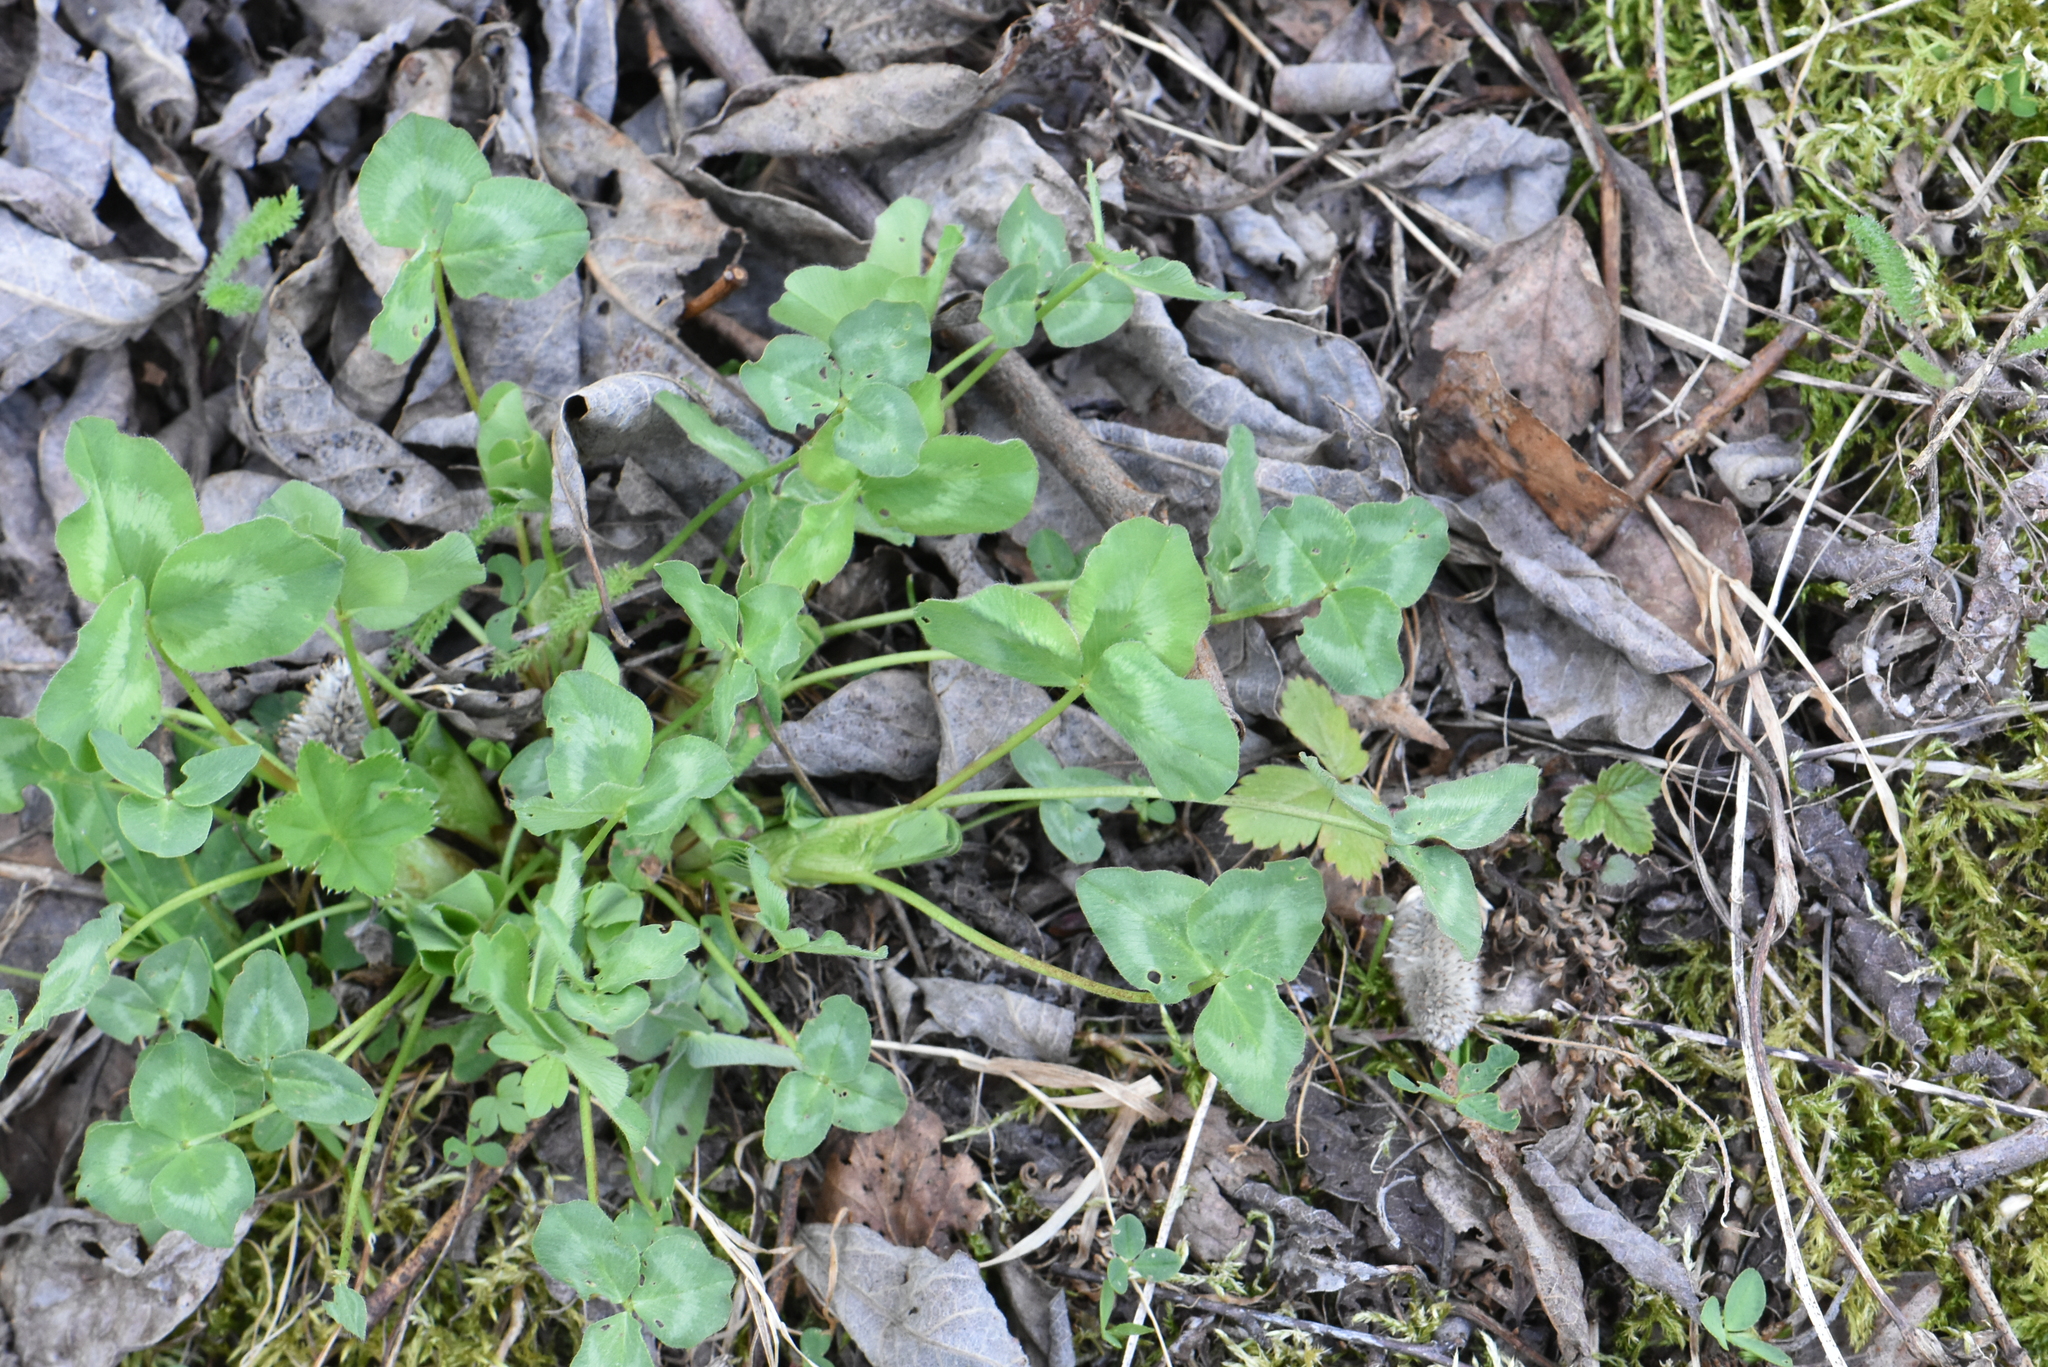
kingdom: Plantae
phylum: Tracheophyta
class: Magnoliopsida
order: Fabales
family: Fabaceae
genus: Trifolium
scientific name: Trifolium pratense
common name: Red clover
